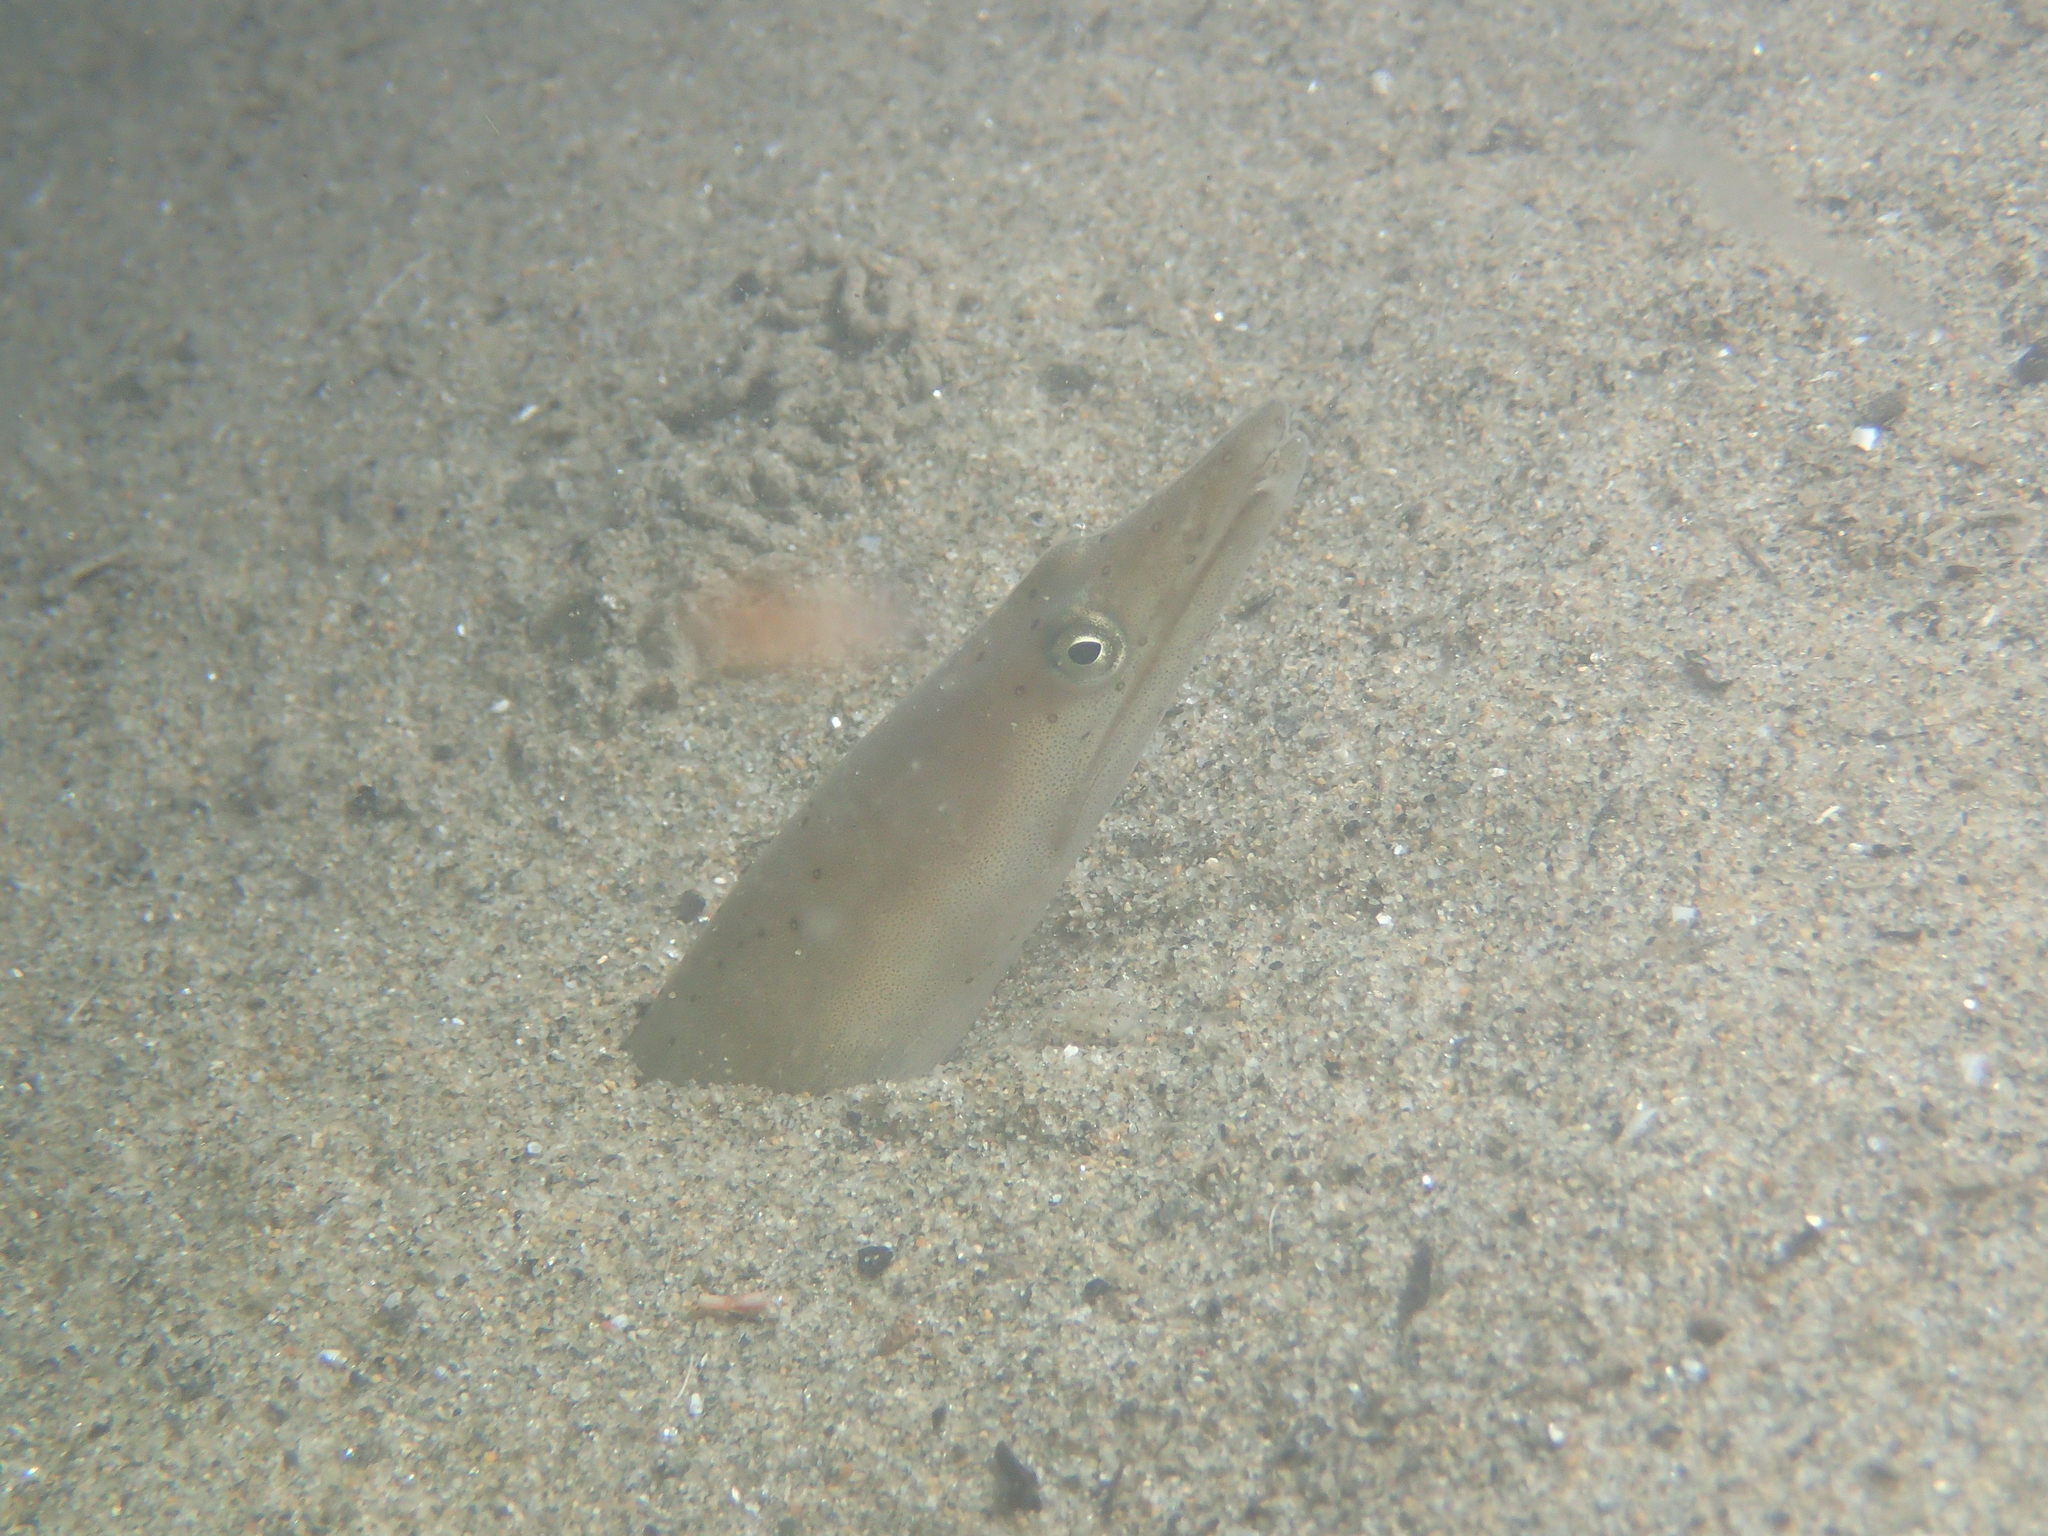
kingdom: Animalia
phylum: Chordata
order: Anguilliformes
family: Ophichthidae
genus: Ophisurus
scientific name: Ophisurus serpens
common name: Serpent eel
